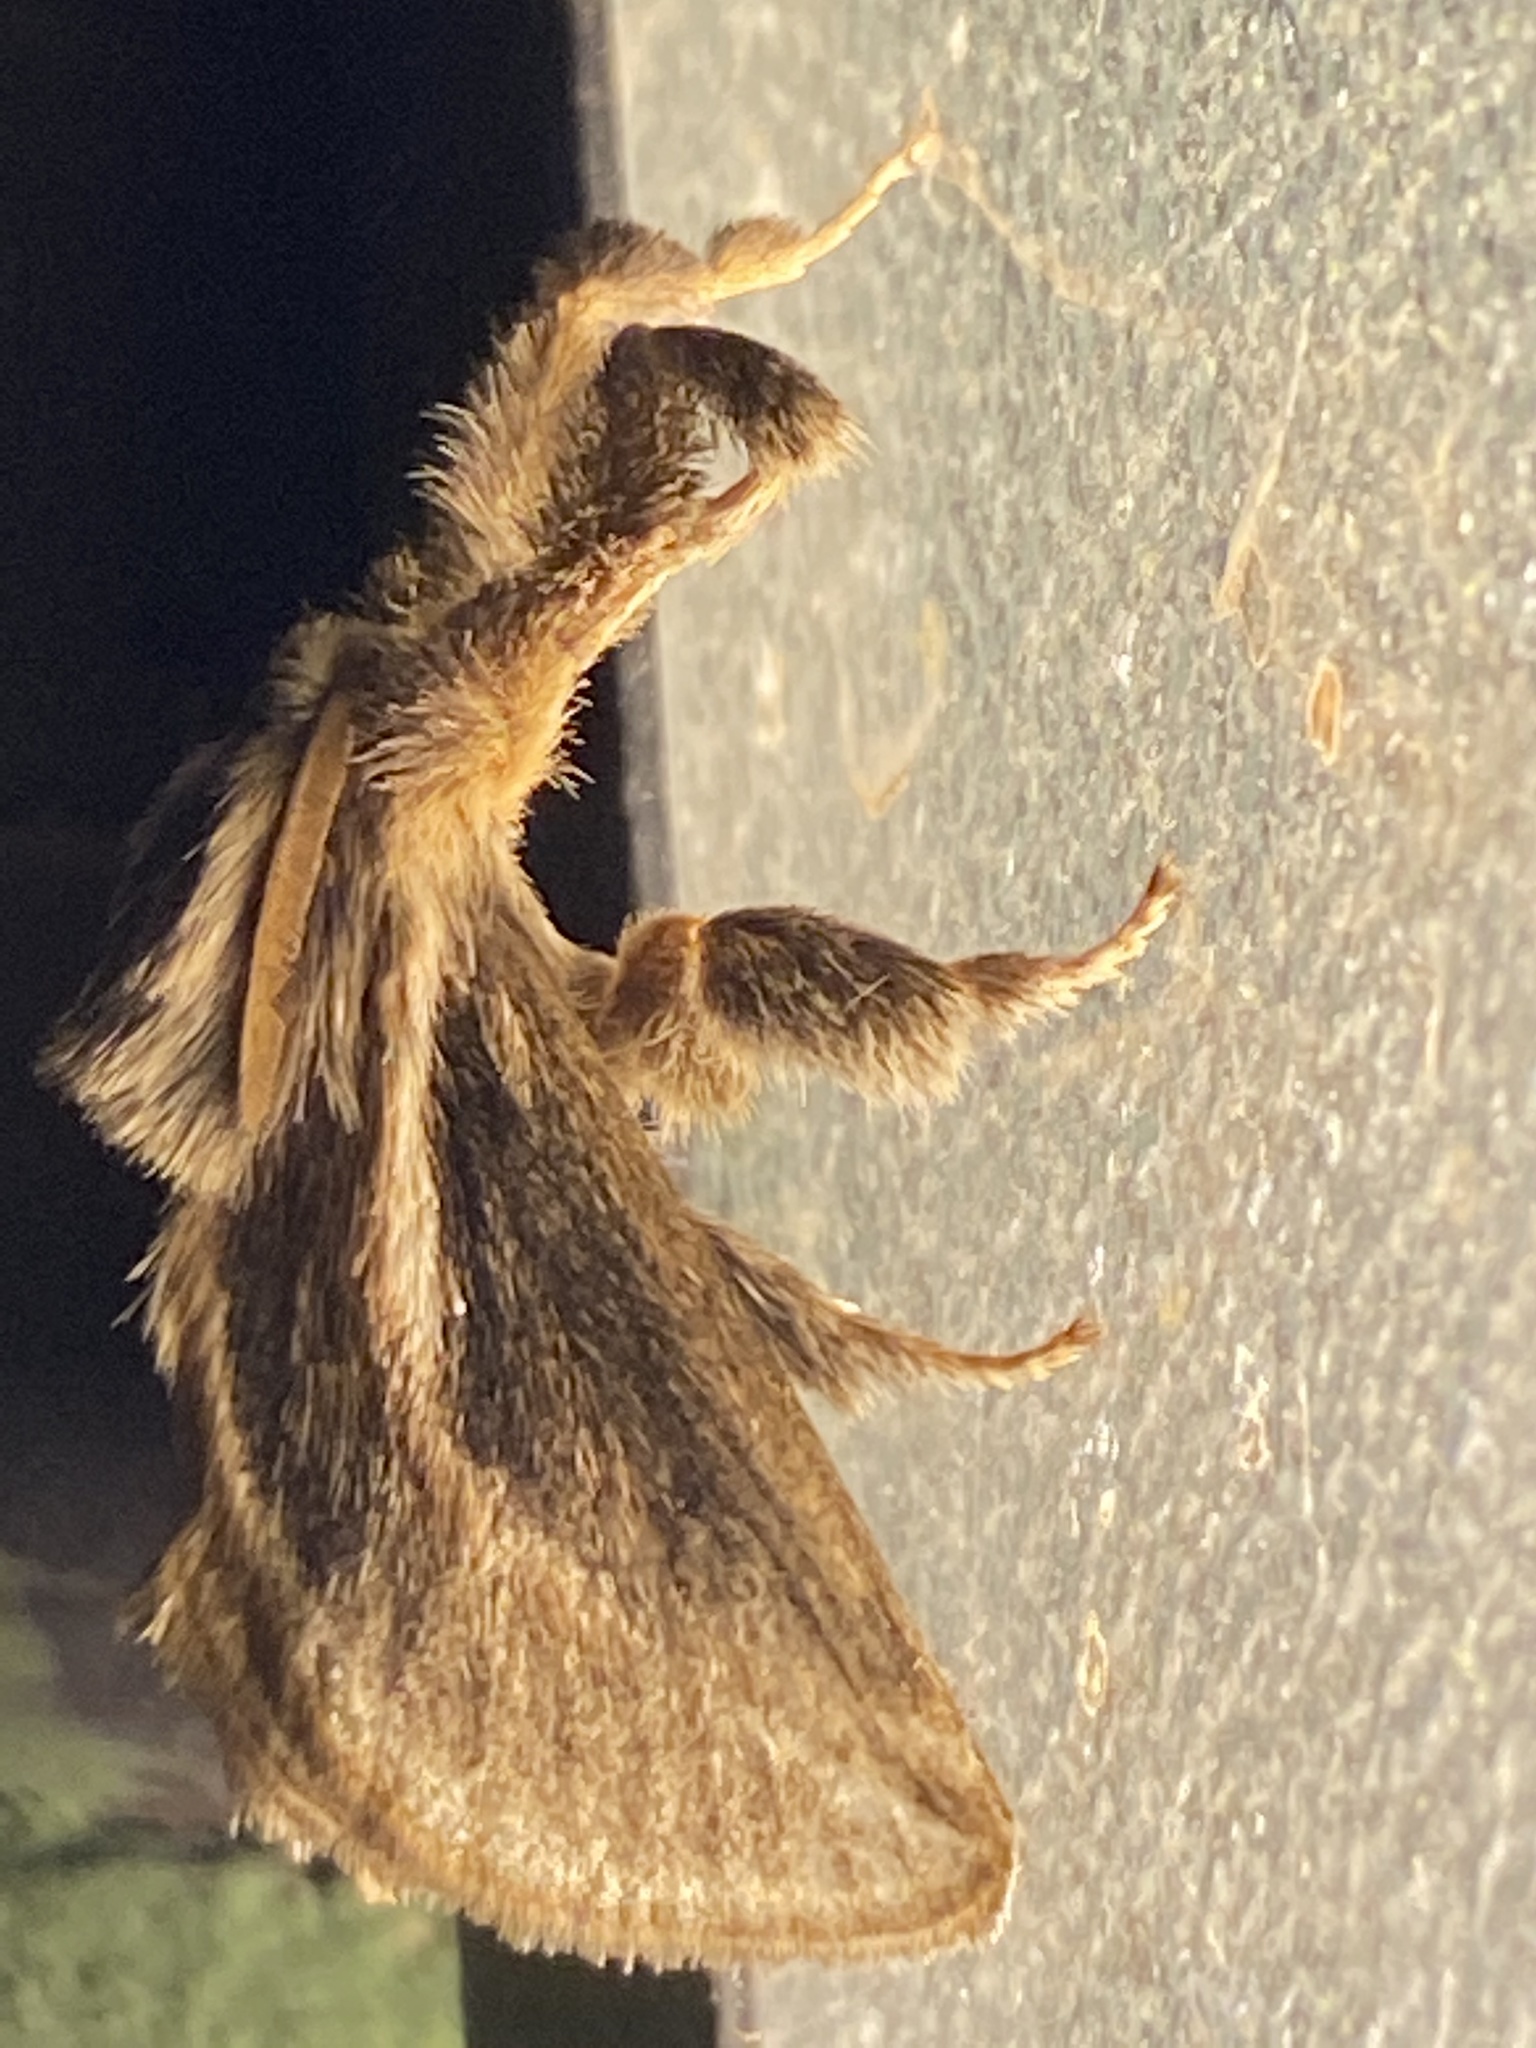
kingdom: Animalia
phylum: Arthropoda
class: Insecta
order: Lepidoptera
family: Limacodidae
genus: Perola
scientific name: Perola brumalis
